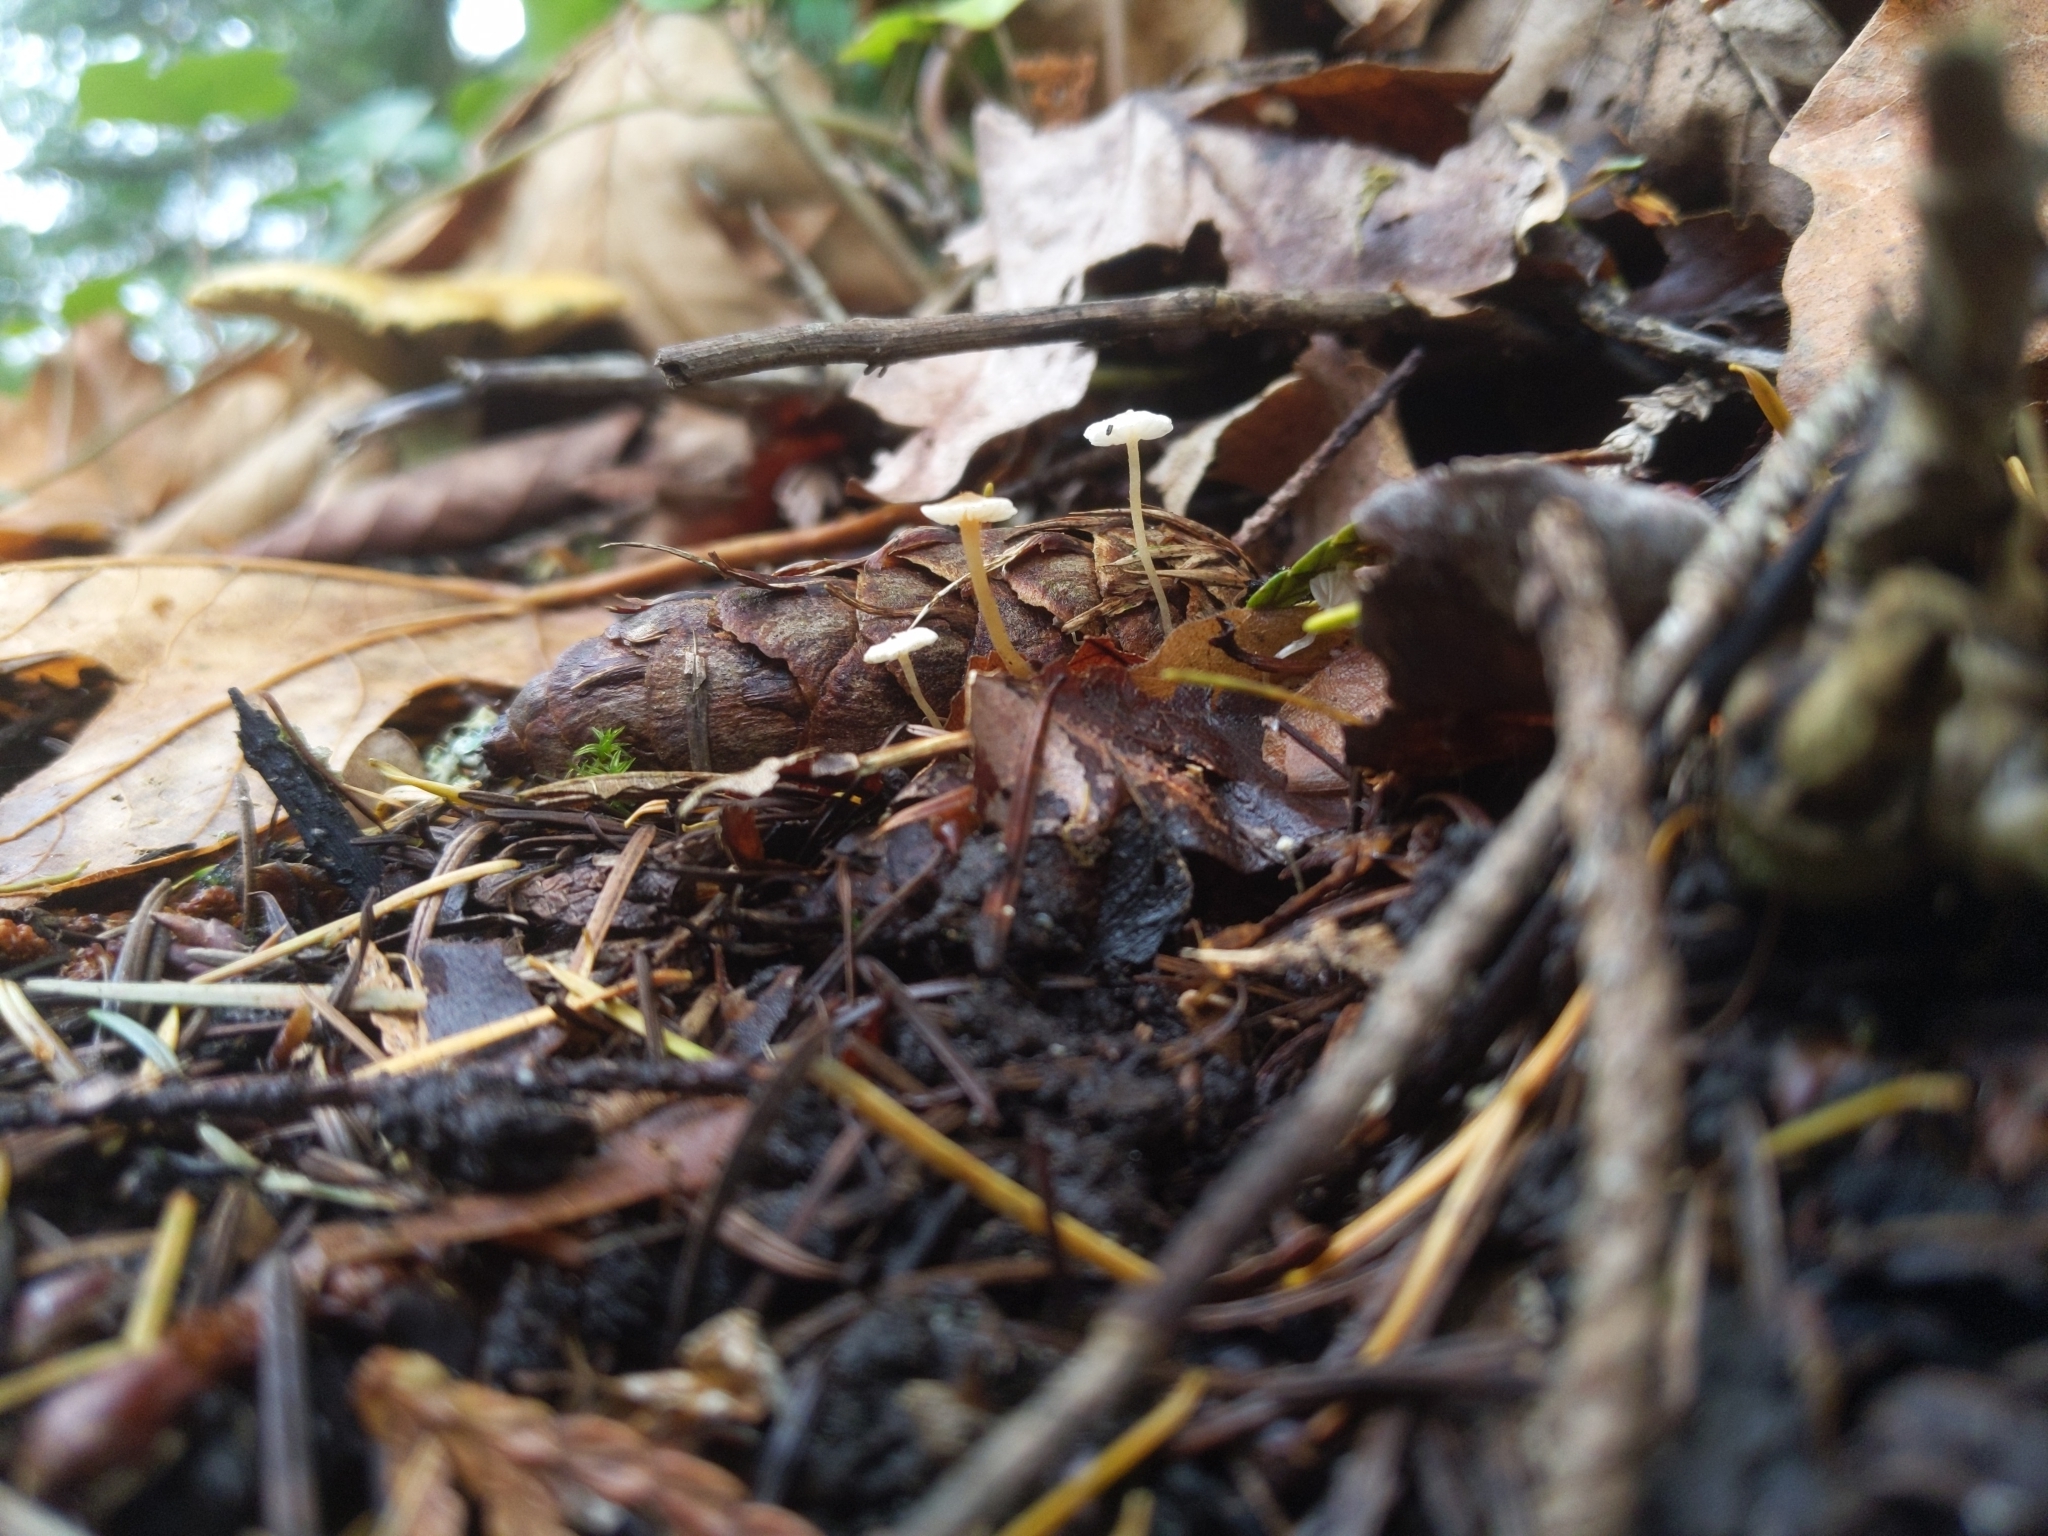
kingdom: Fungi
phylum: Basidiomycota
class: Agaricomycetes
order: Agaricales
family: Physalacriaceae
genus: Strobilurus
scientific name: Strobilurus trullisatus
